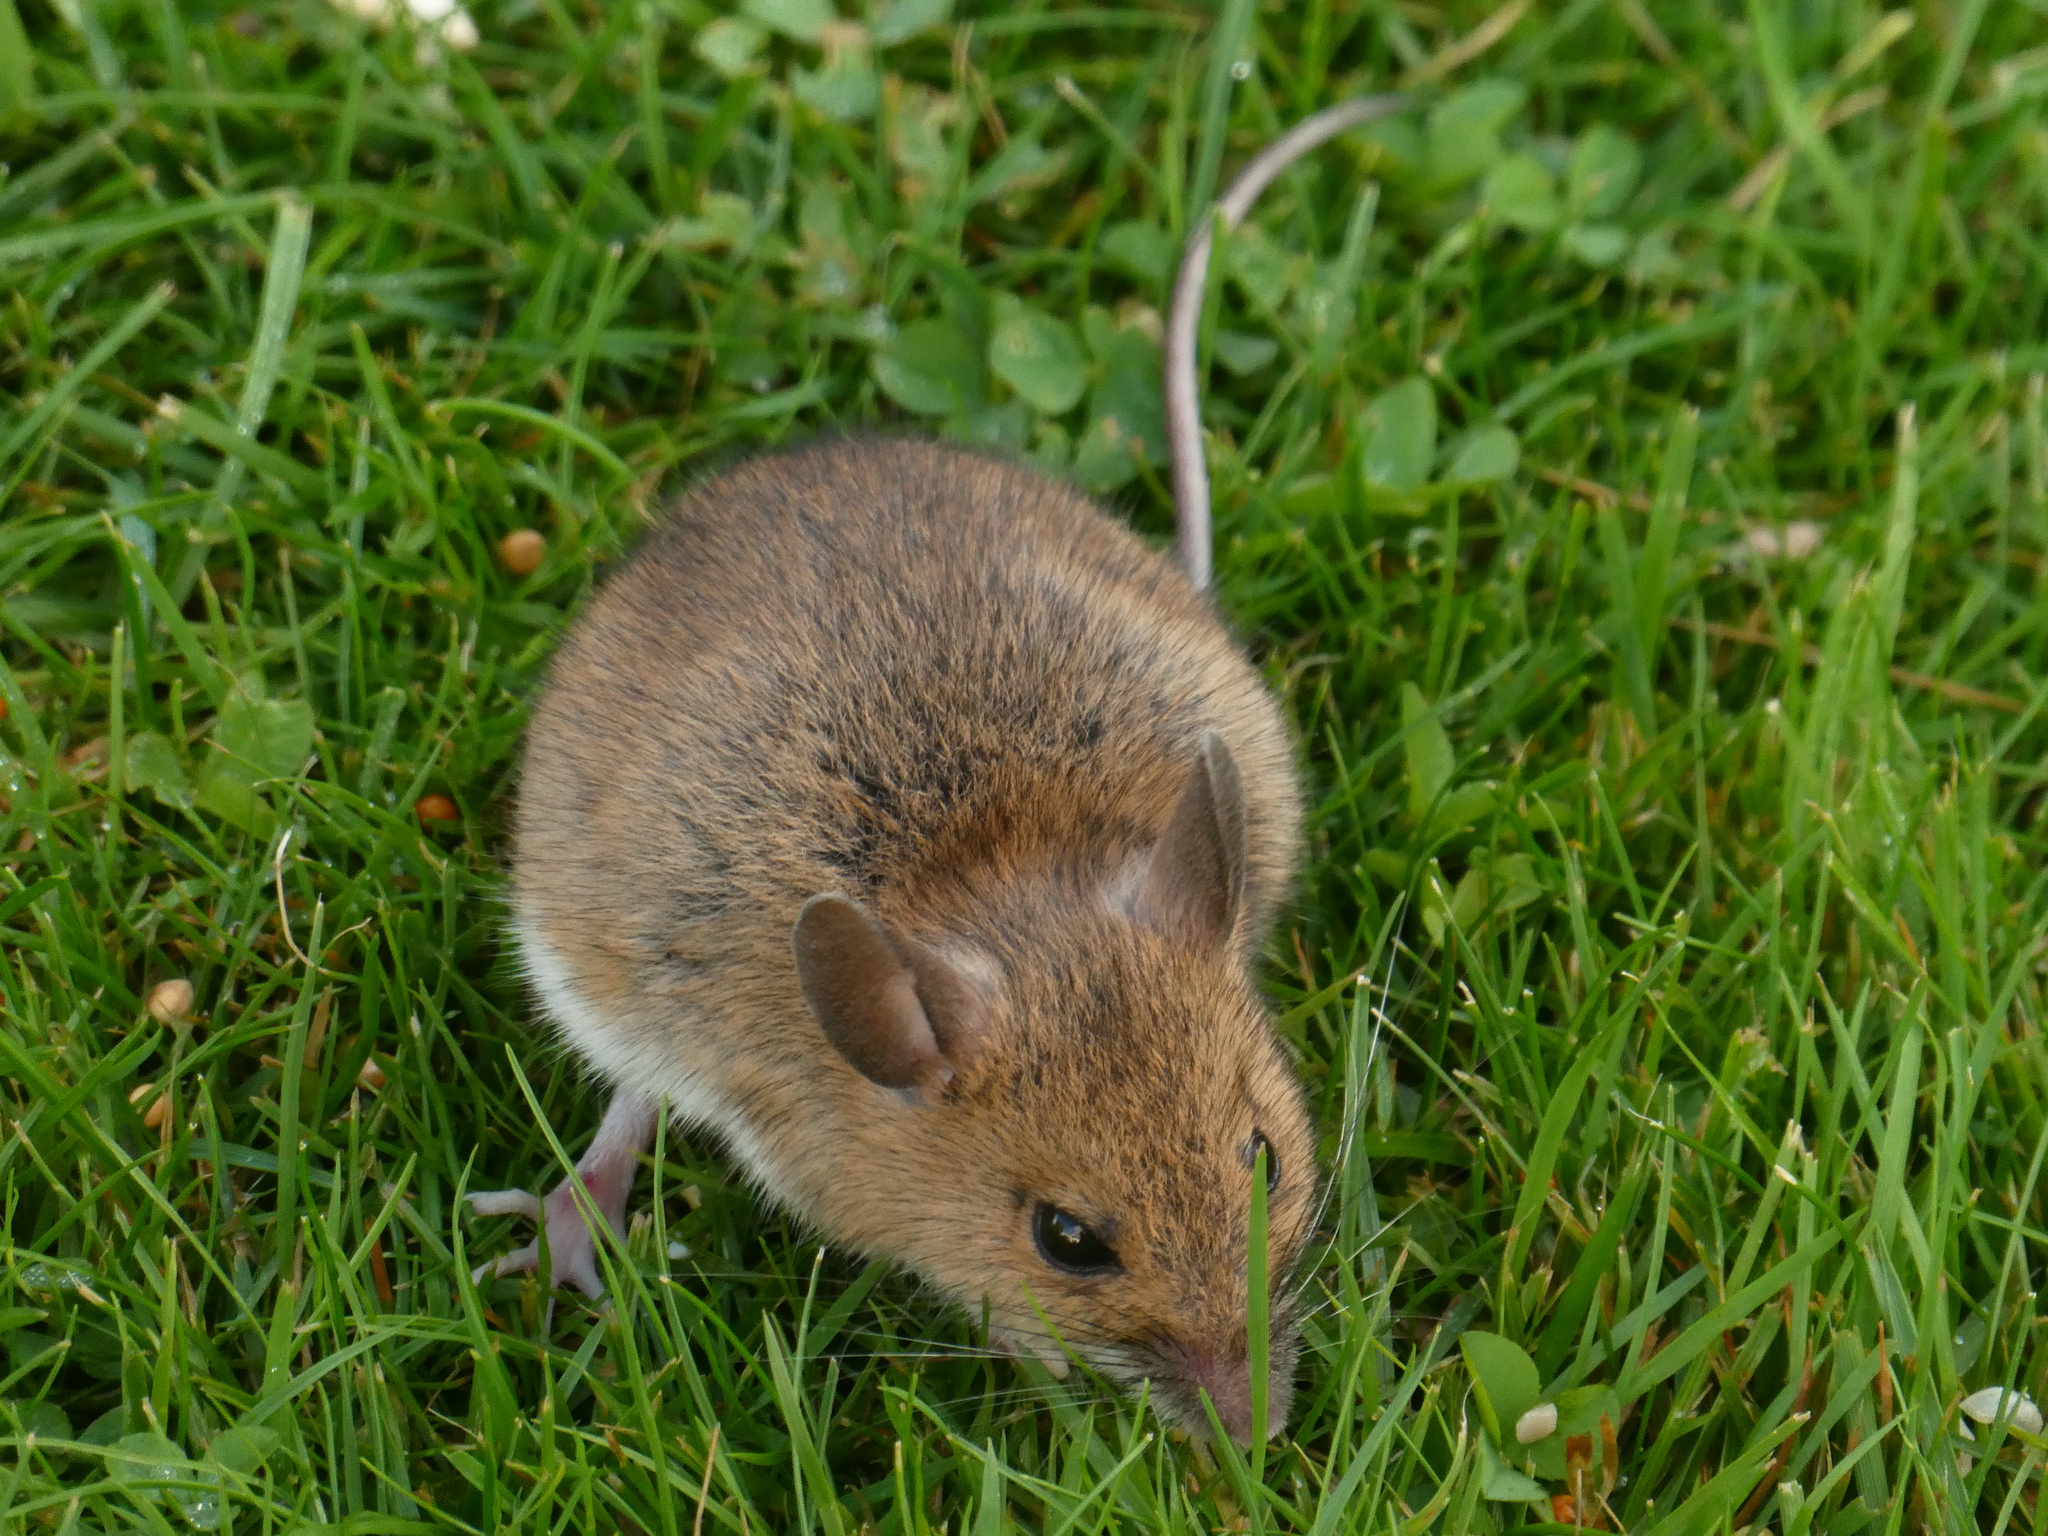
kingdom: Animalia
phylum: Chordata
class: Mammalia
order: Rodentia
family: Muridae
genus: Apodemus
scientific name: Apodemus sylvaticus
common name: Wood mouse
